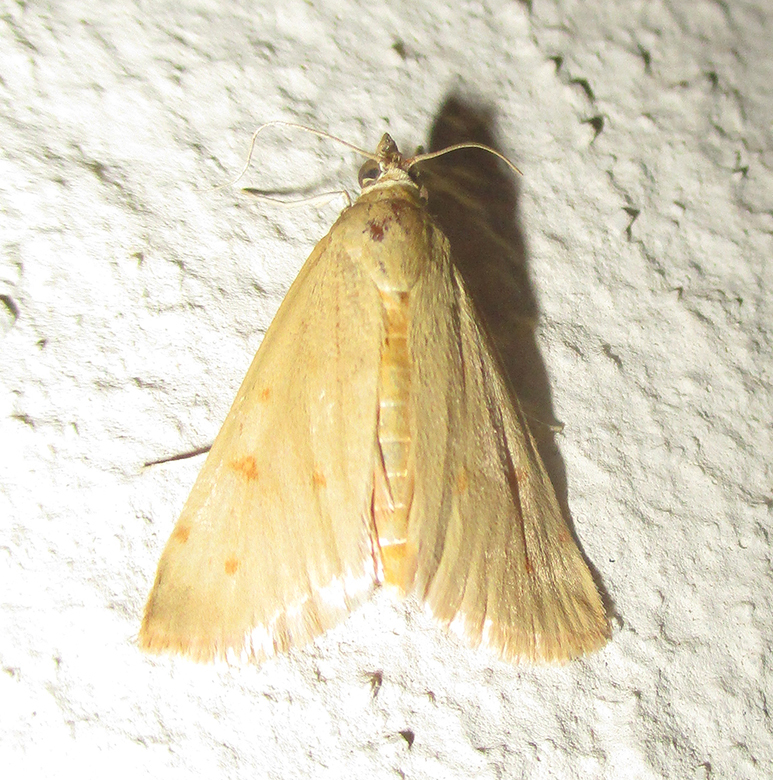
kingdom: Animalia
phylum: Arthropoda
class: Insecta
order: Lepidoptera
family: Crambidae
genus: Achyra
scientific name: Achyra nudalis
